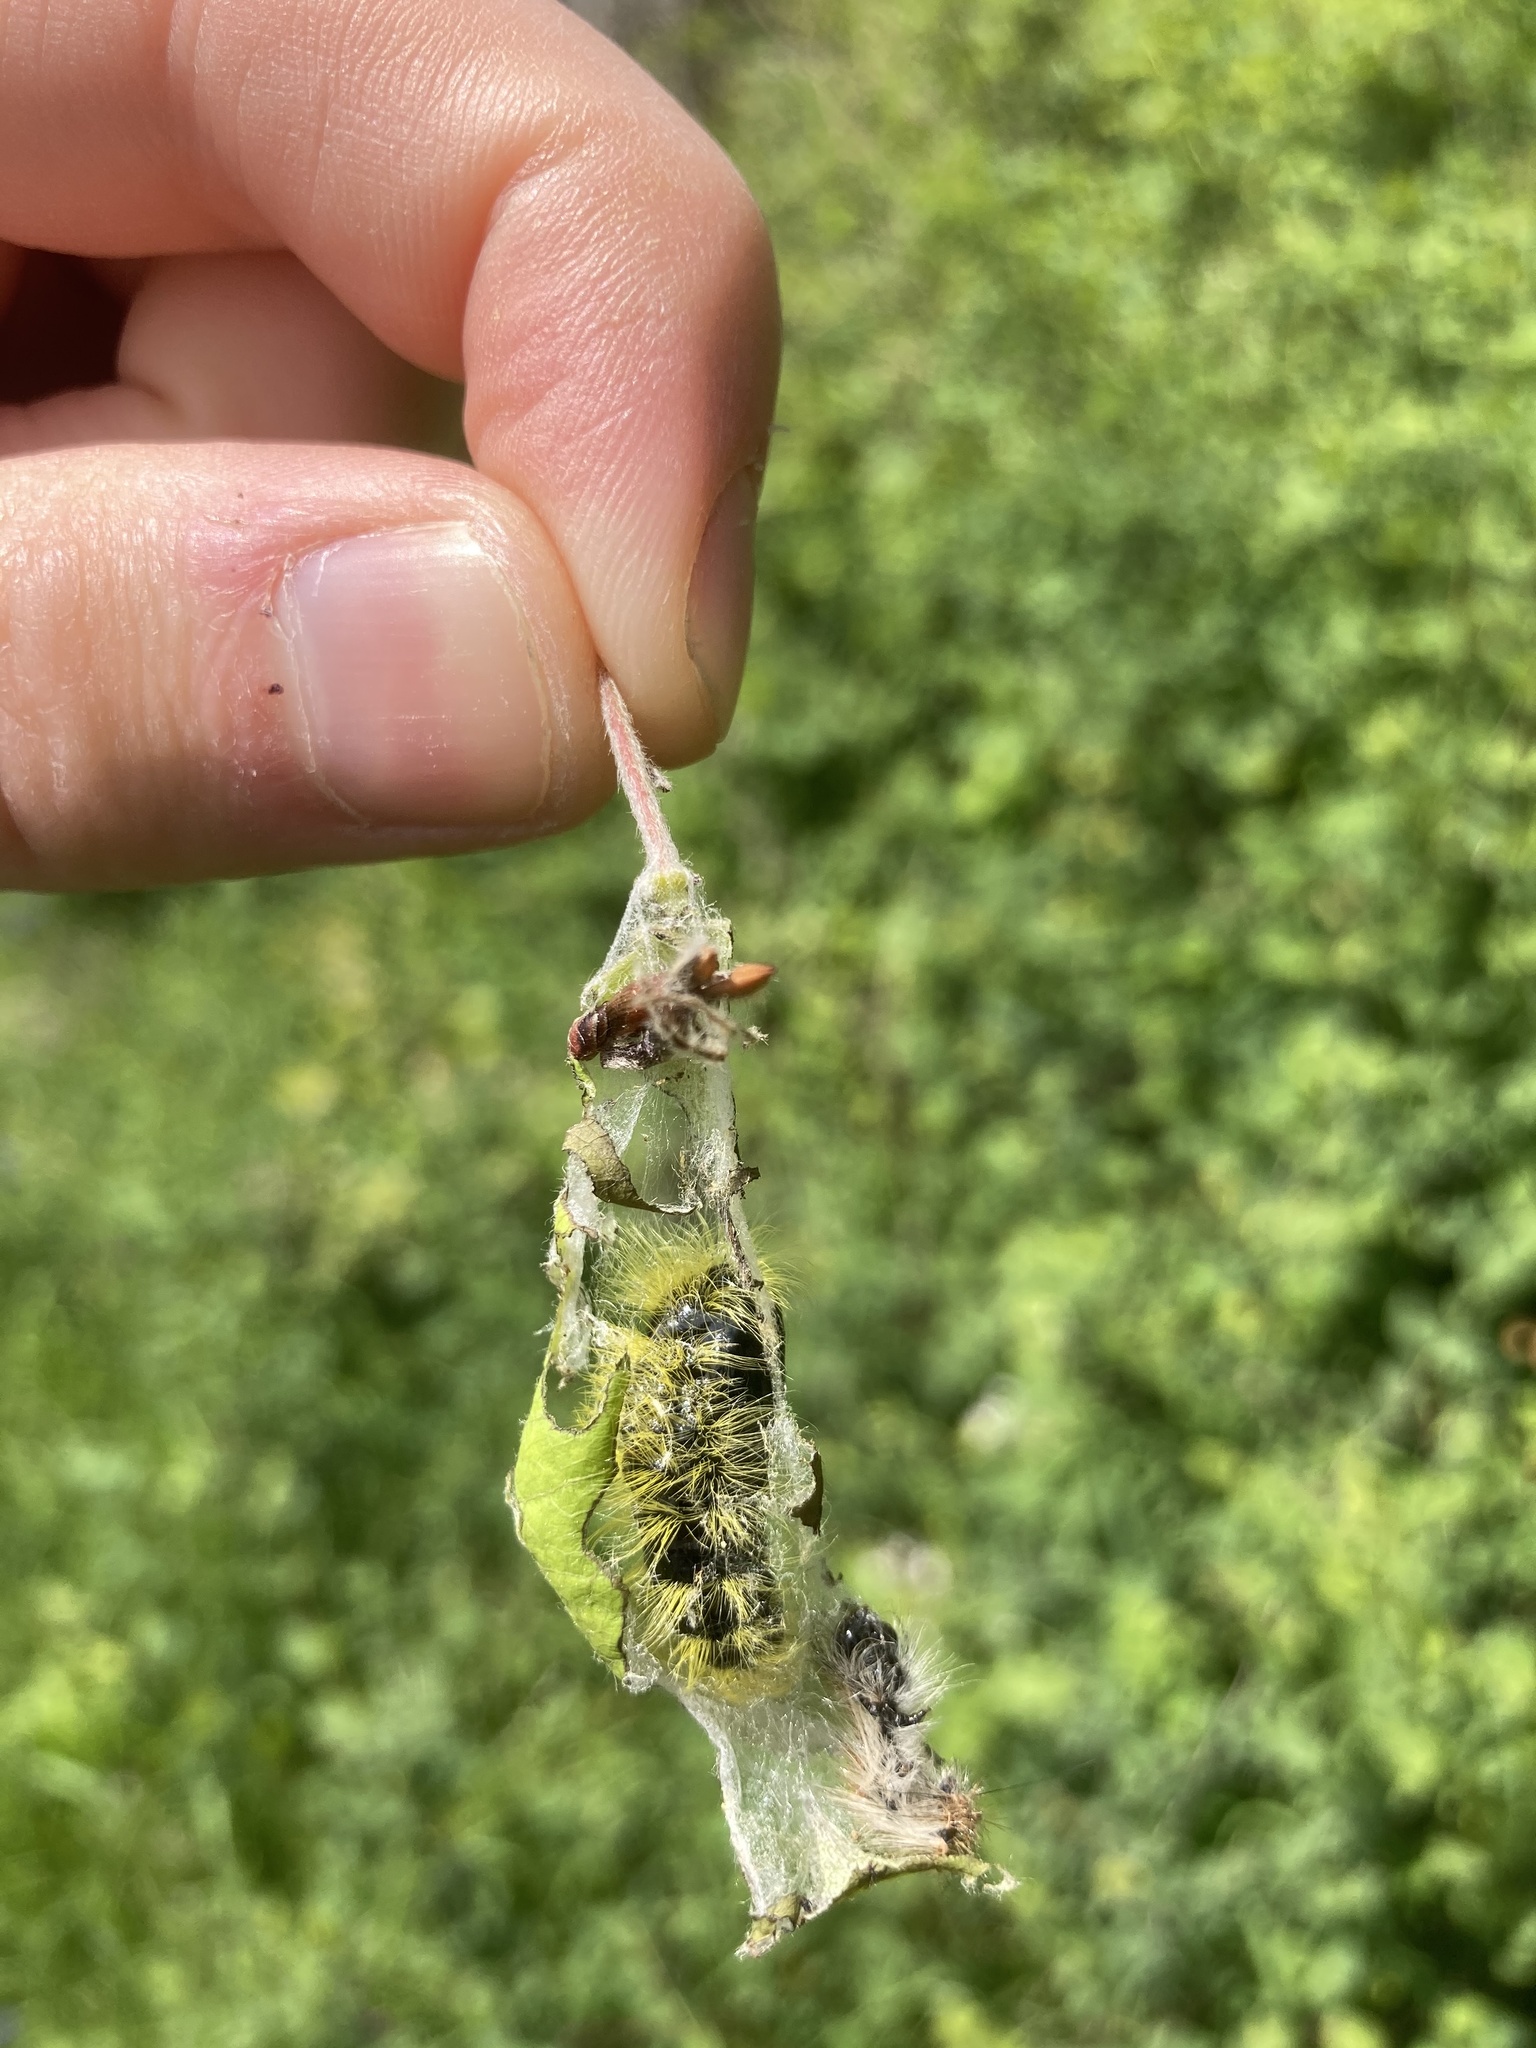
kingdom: Animalia
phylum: Arthropoda
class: Insecta
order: Lepidoptera
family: Erebidae
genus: Leucoma
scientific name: Leucoma salicis
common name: White satin moth
